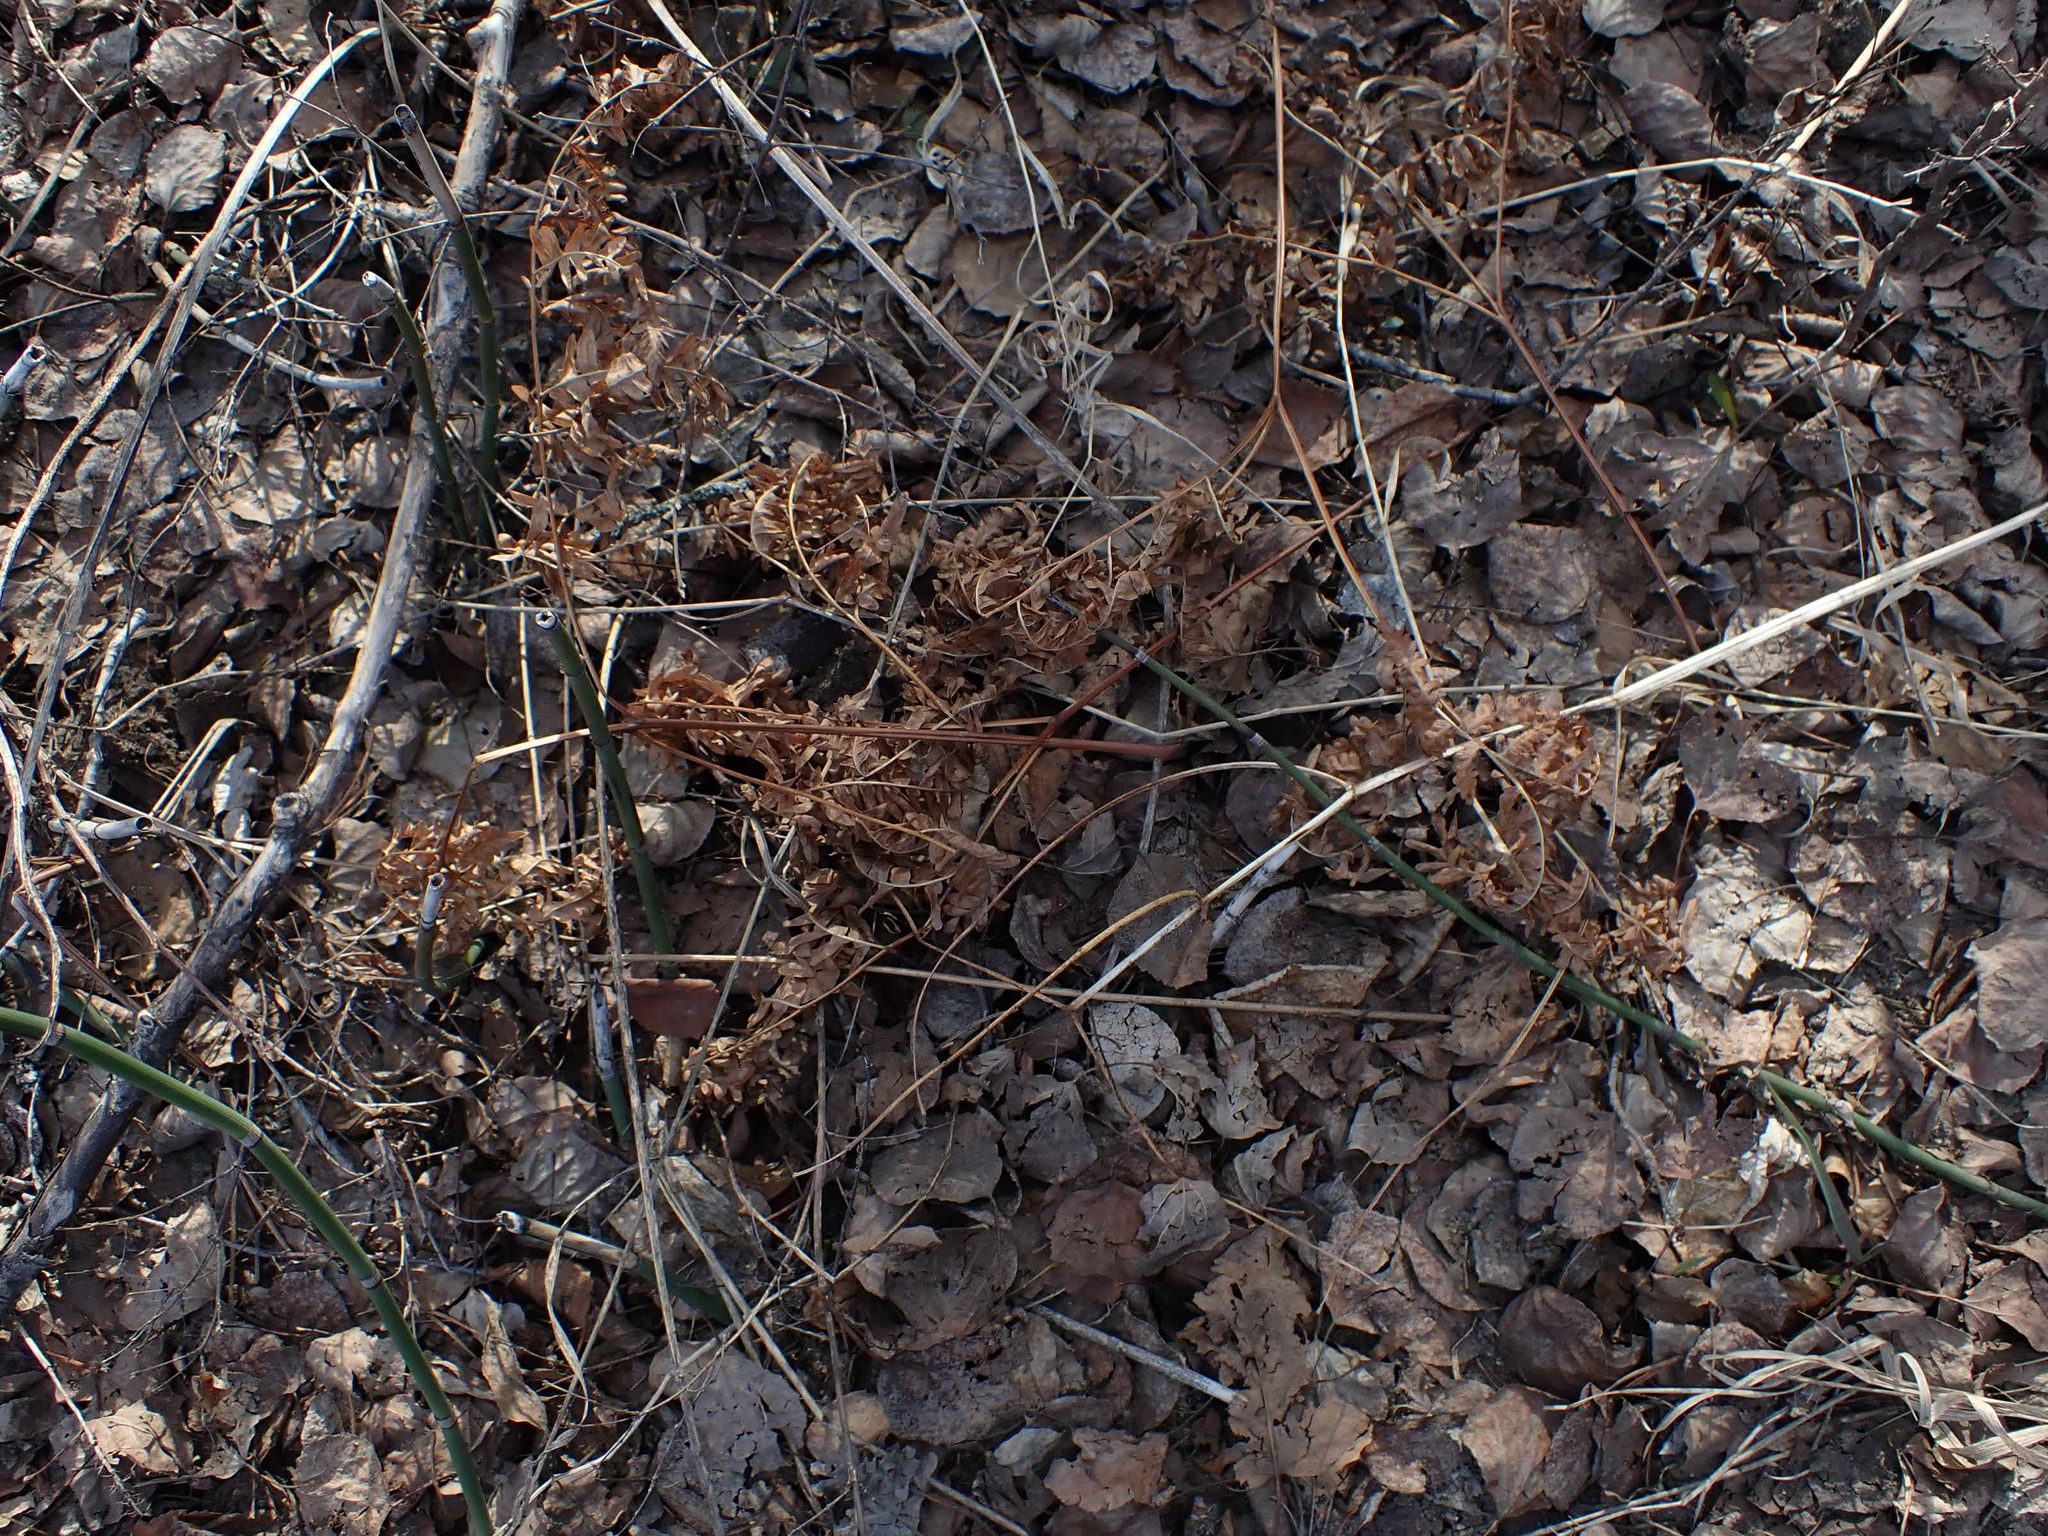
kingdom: Plantae
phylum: Tracheophyta
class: Polypodiopsida
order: Polypodiales
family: Dennstaedtiaceae
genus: Pteridium
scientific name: Pteridium aquilinum
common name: Bracken
